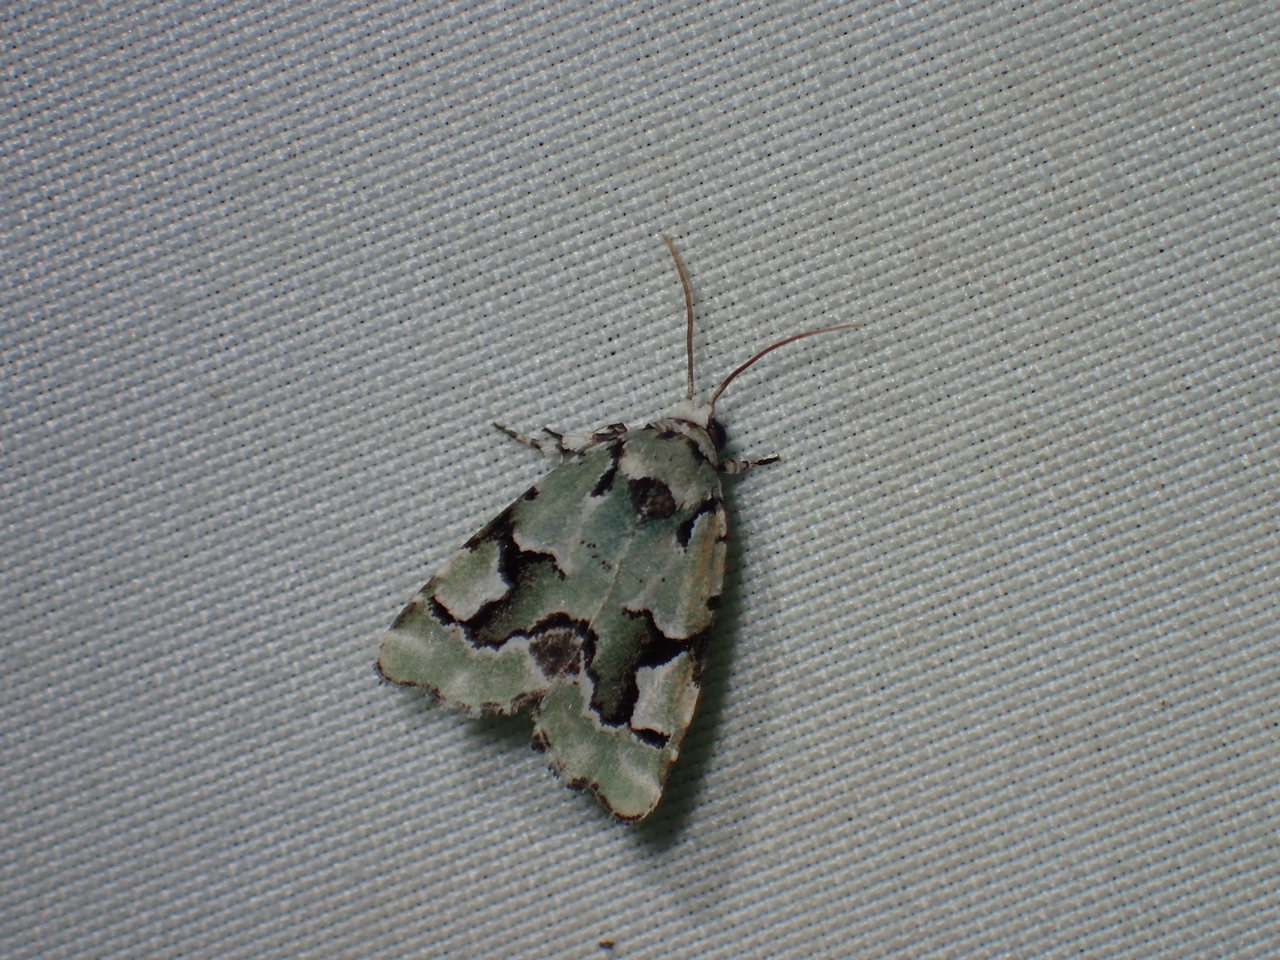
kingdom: Animalia
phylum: Arthropoda
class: Insecta
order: Lepidoptera
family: Noctuidae
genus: Emarginea
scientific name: Emarginea percara
